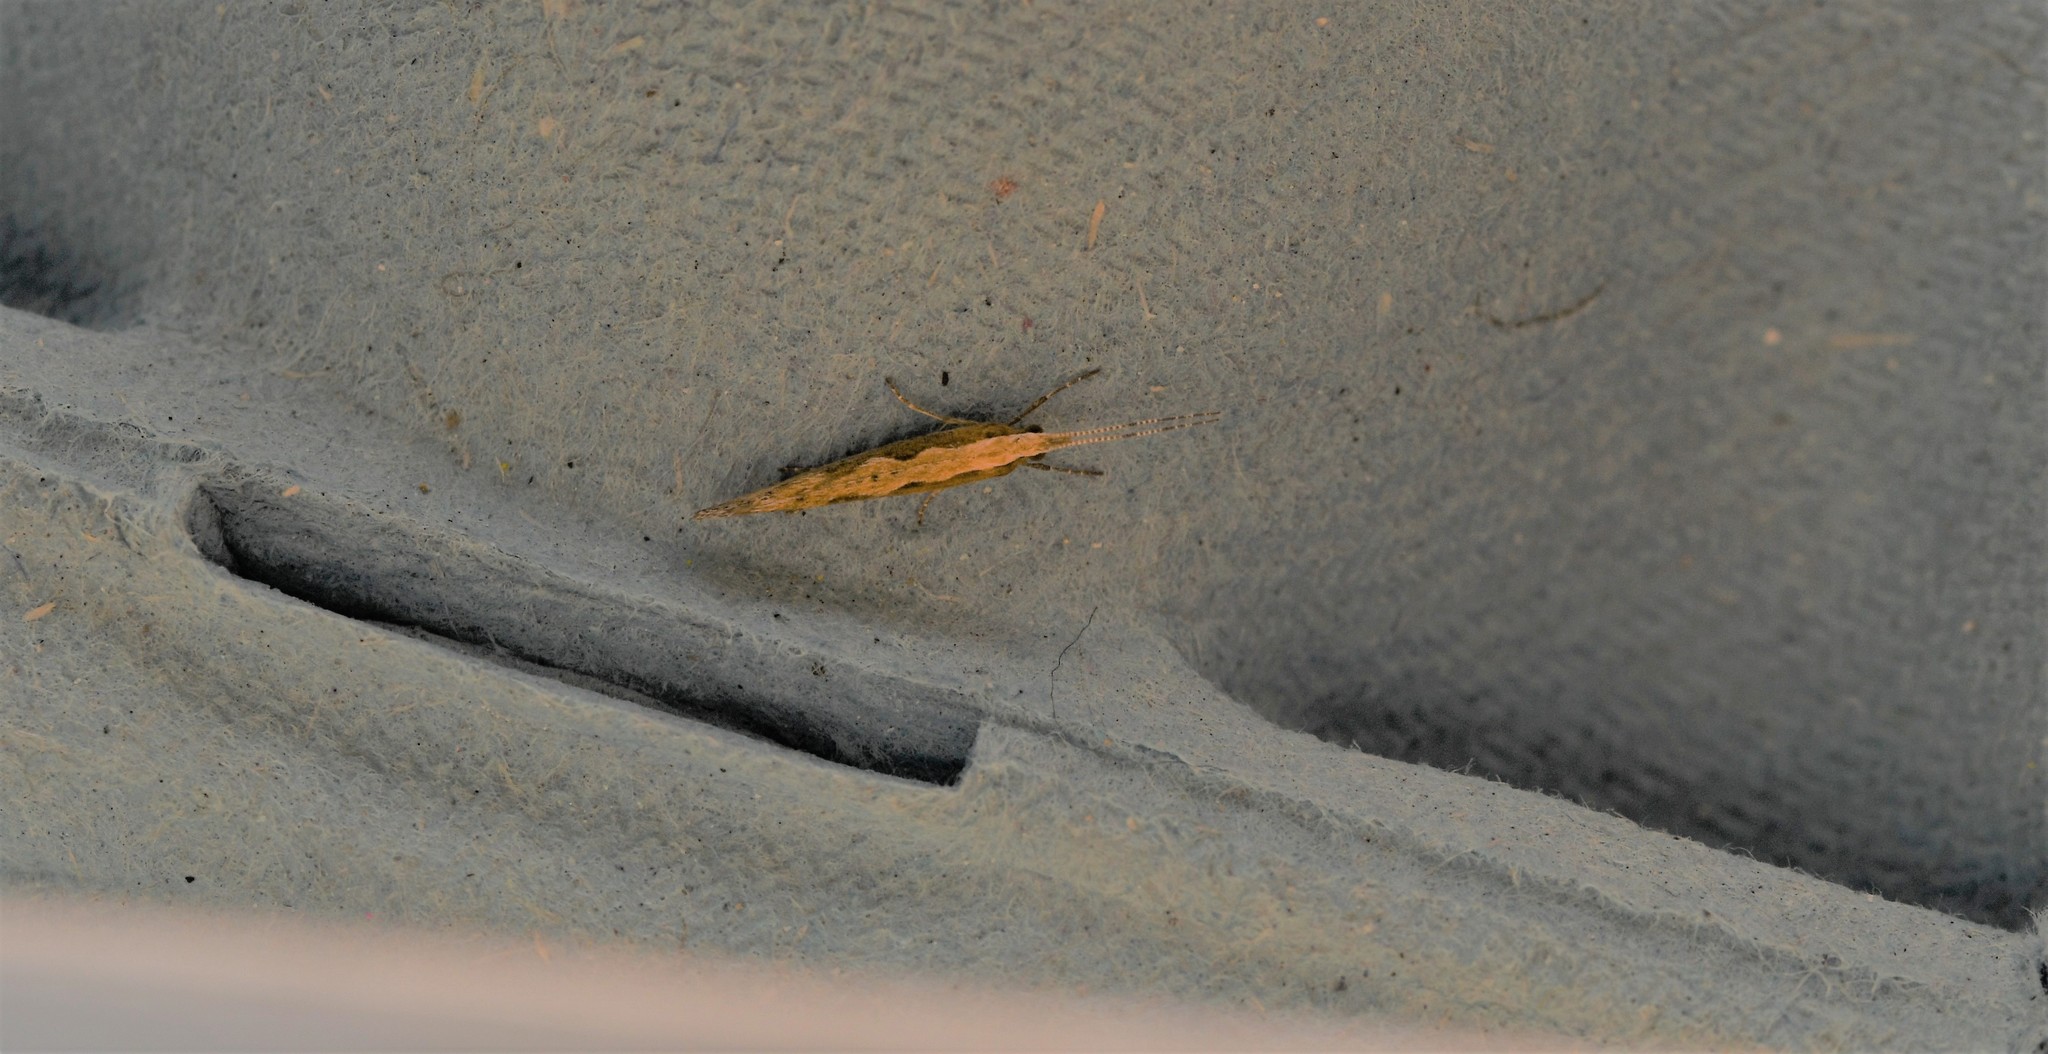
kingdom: Animalia
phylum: Arthropoda
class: Insecta
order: Lepidoptera
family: Plutellidae
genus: Plutella
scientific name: Plutella xylostella
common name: Diamond-back moth
